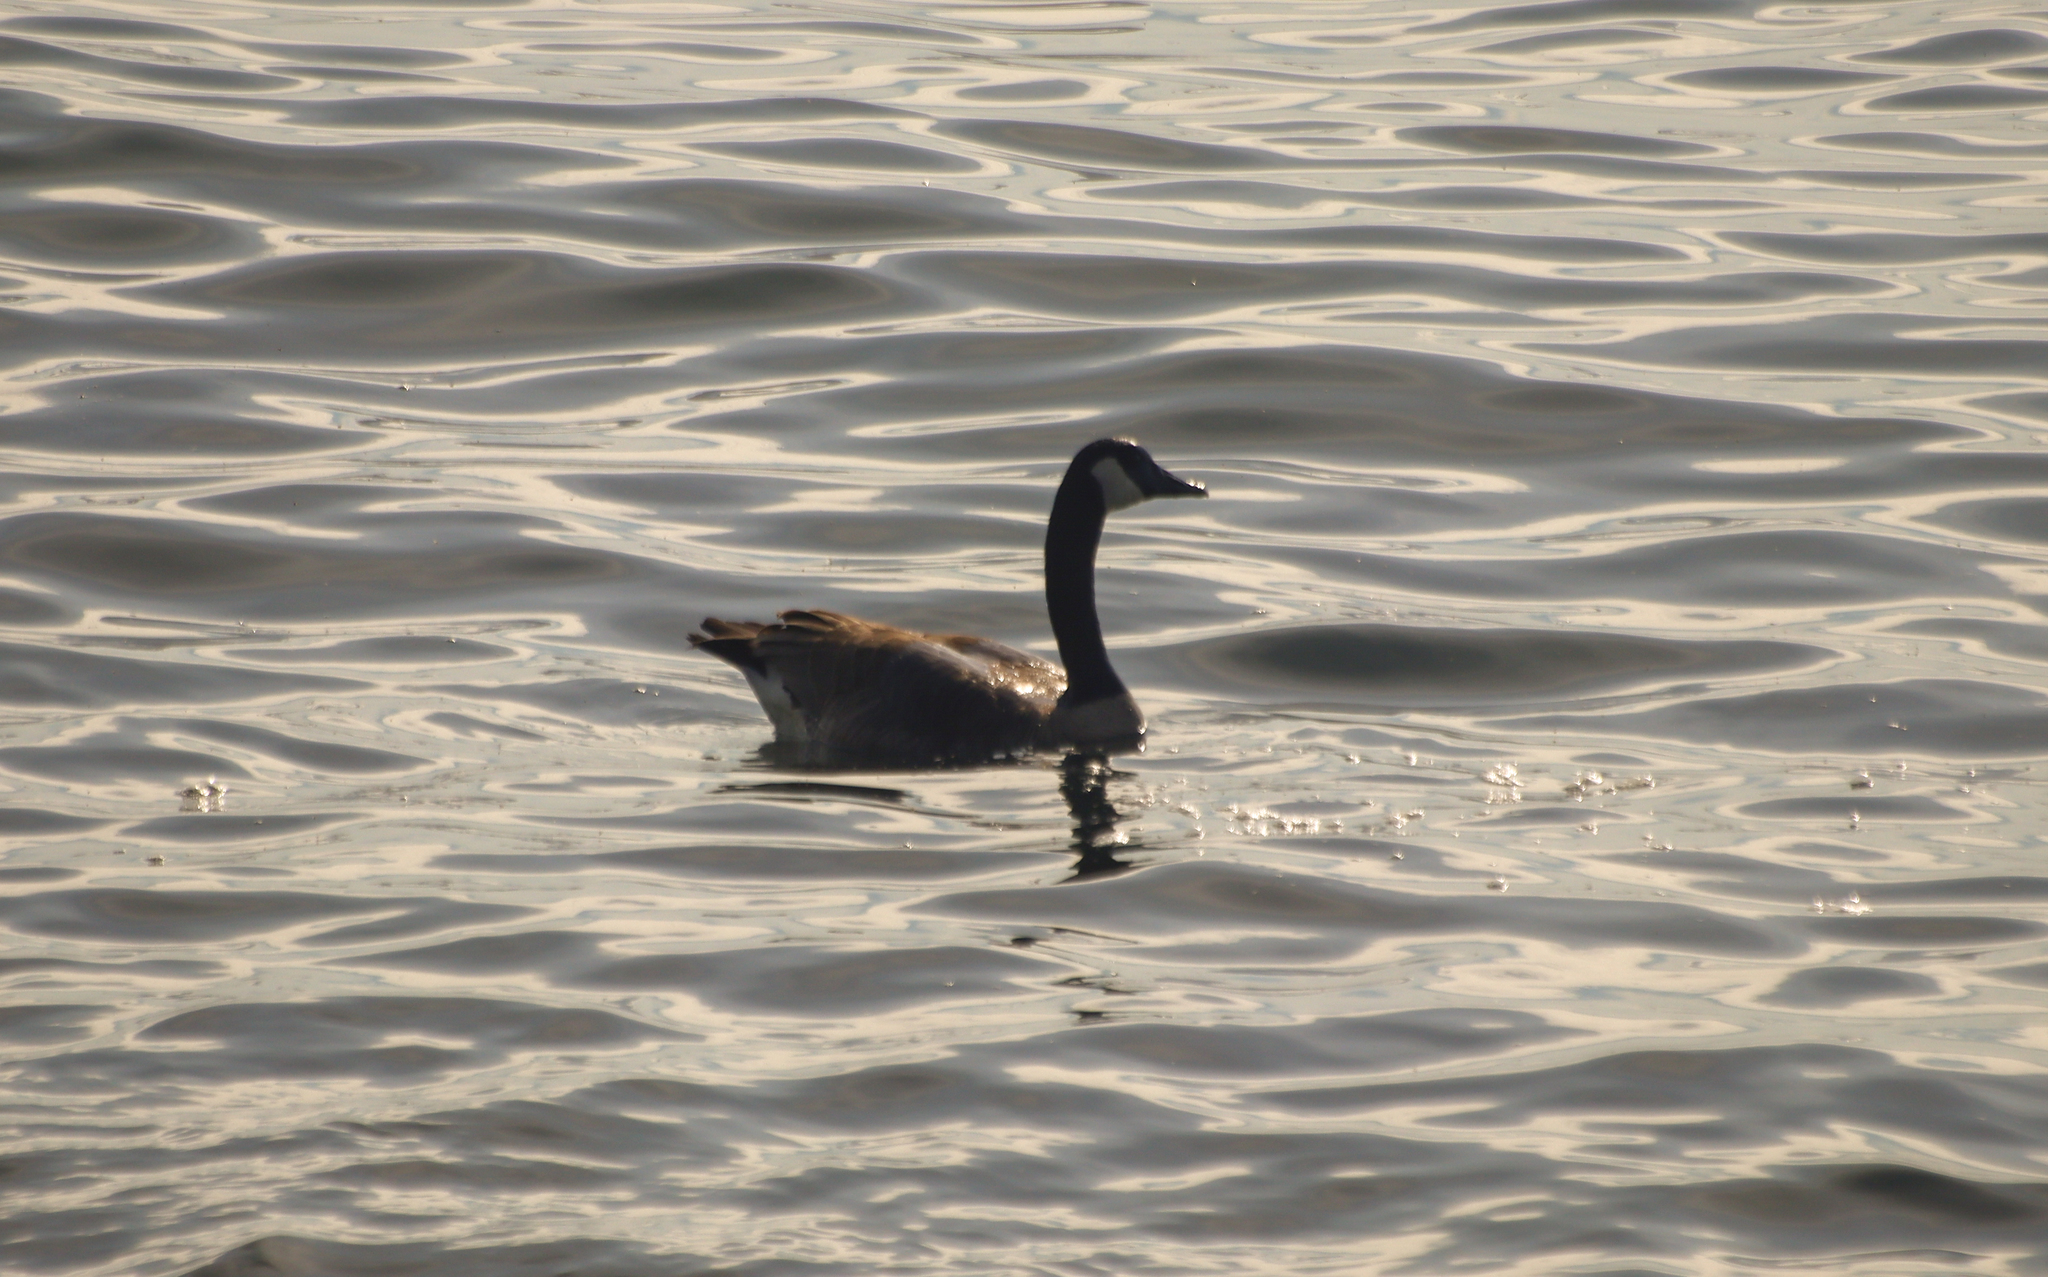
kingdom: Animalia
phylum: Chordata
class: Aves
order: Anseriformes
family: Anatidae
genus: Branta
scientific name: Branta canadensis
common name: Canada goose
